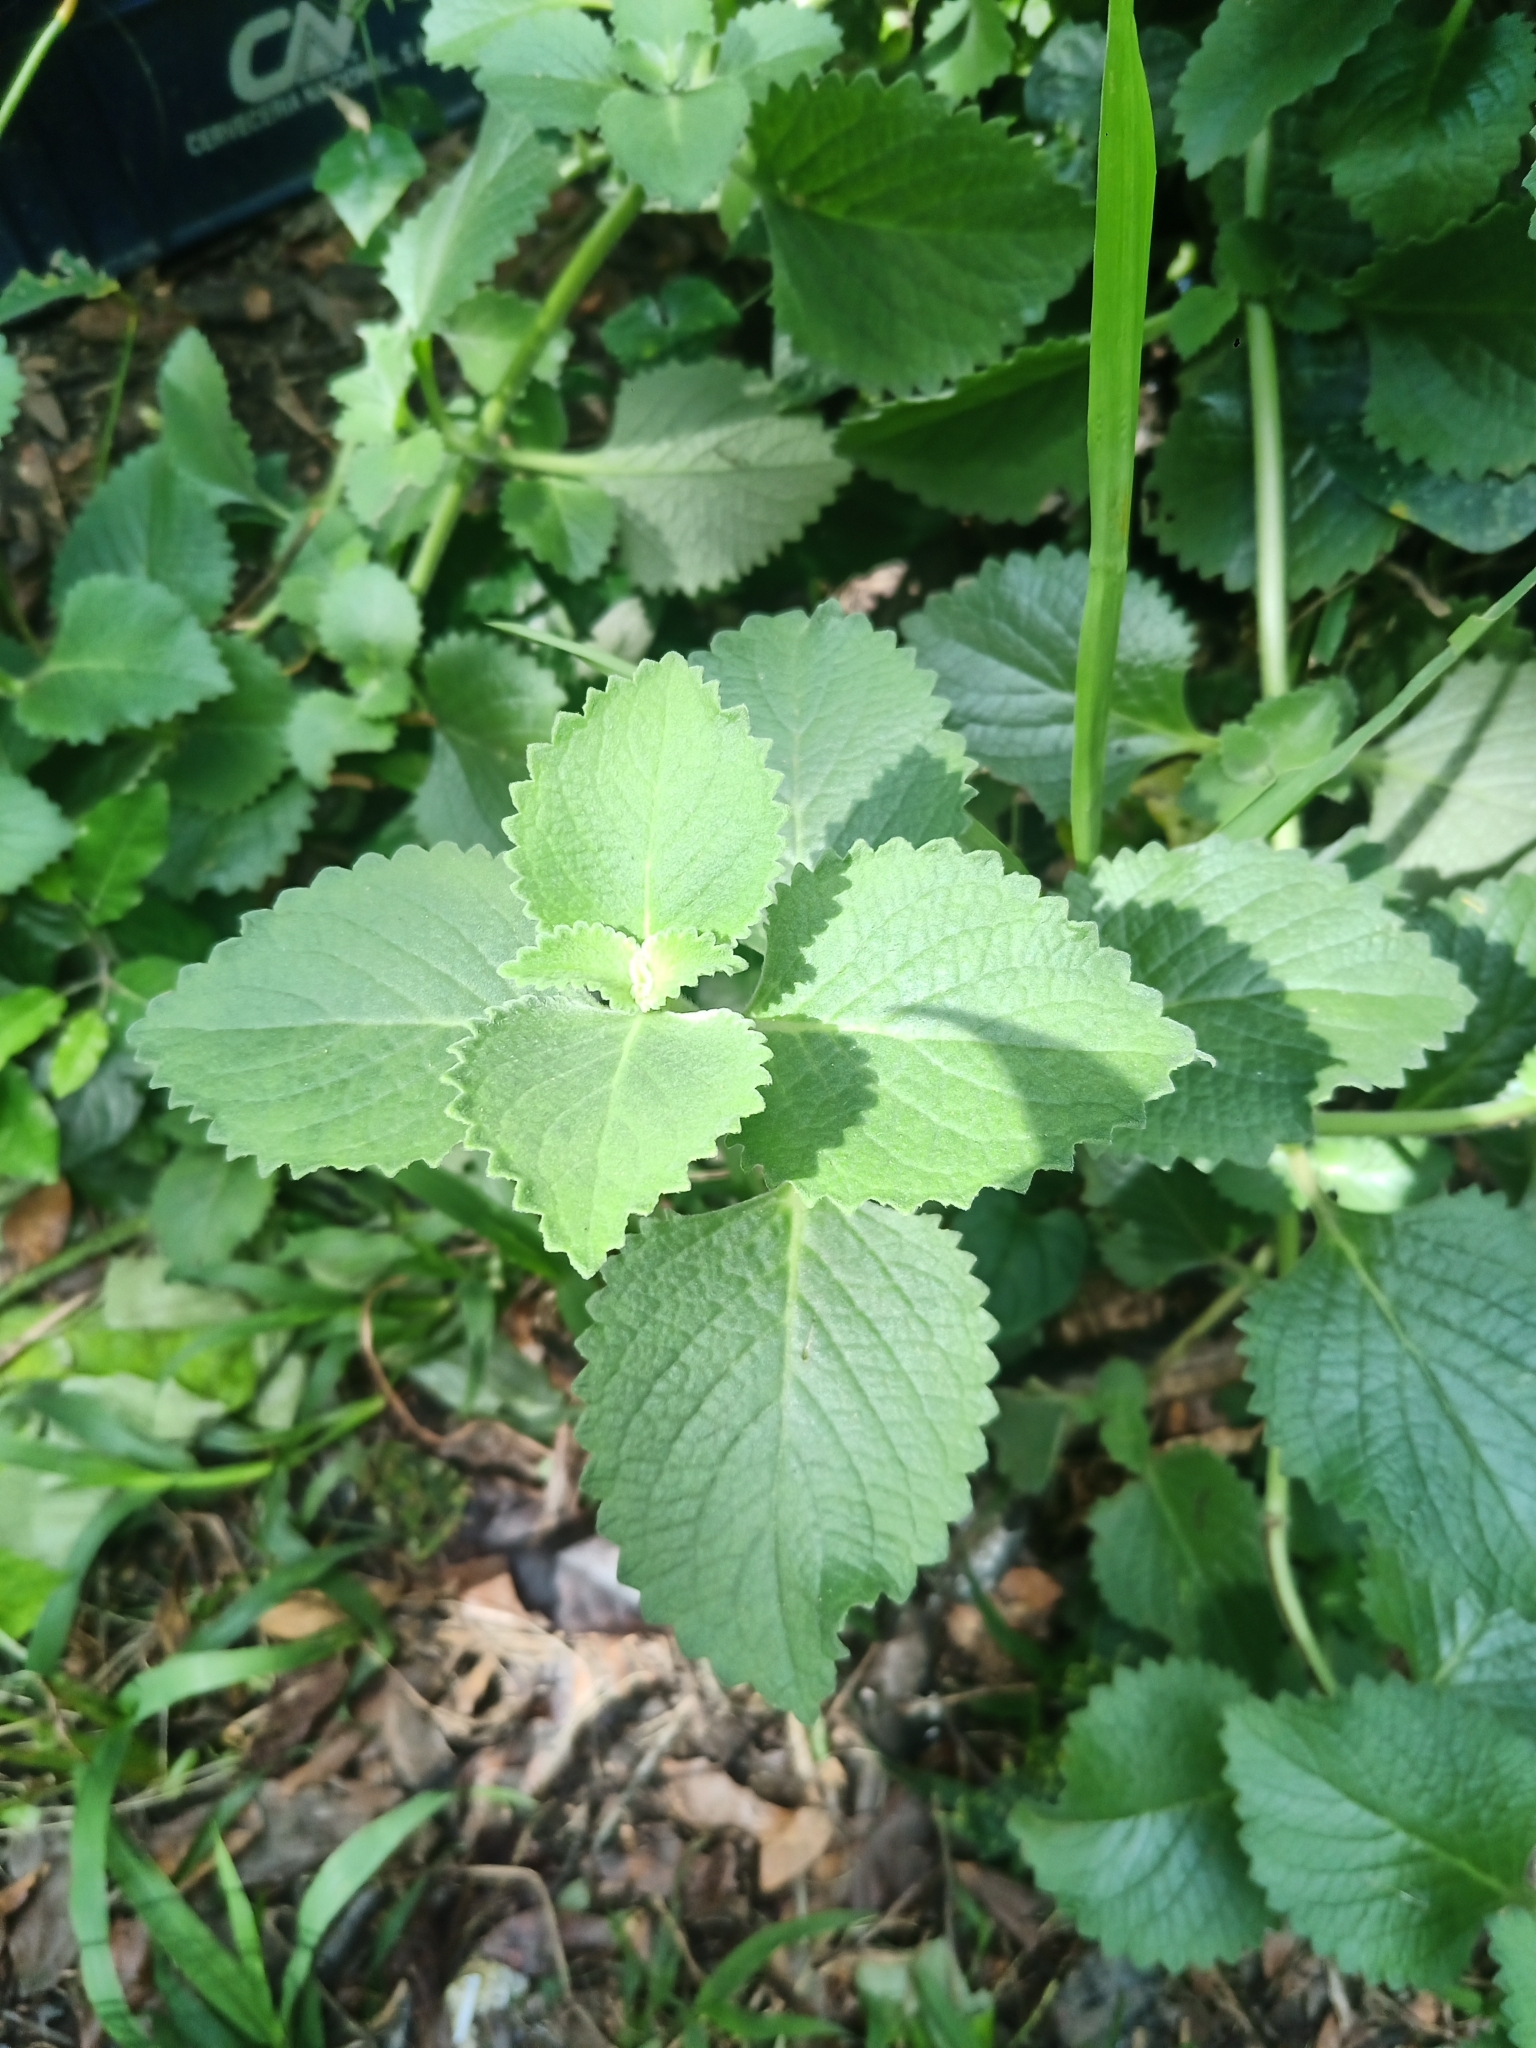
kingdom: Plantae
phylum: Tracheophyta
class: Magnoliopsida
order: Lamiales
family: Lamiaceae
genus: Coleus
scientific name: Coleus amboinicus
